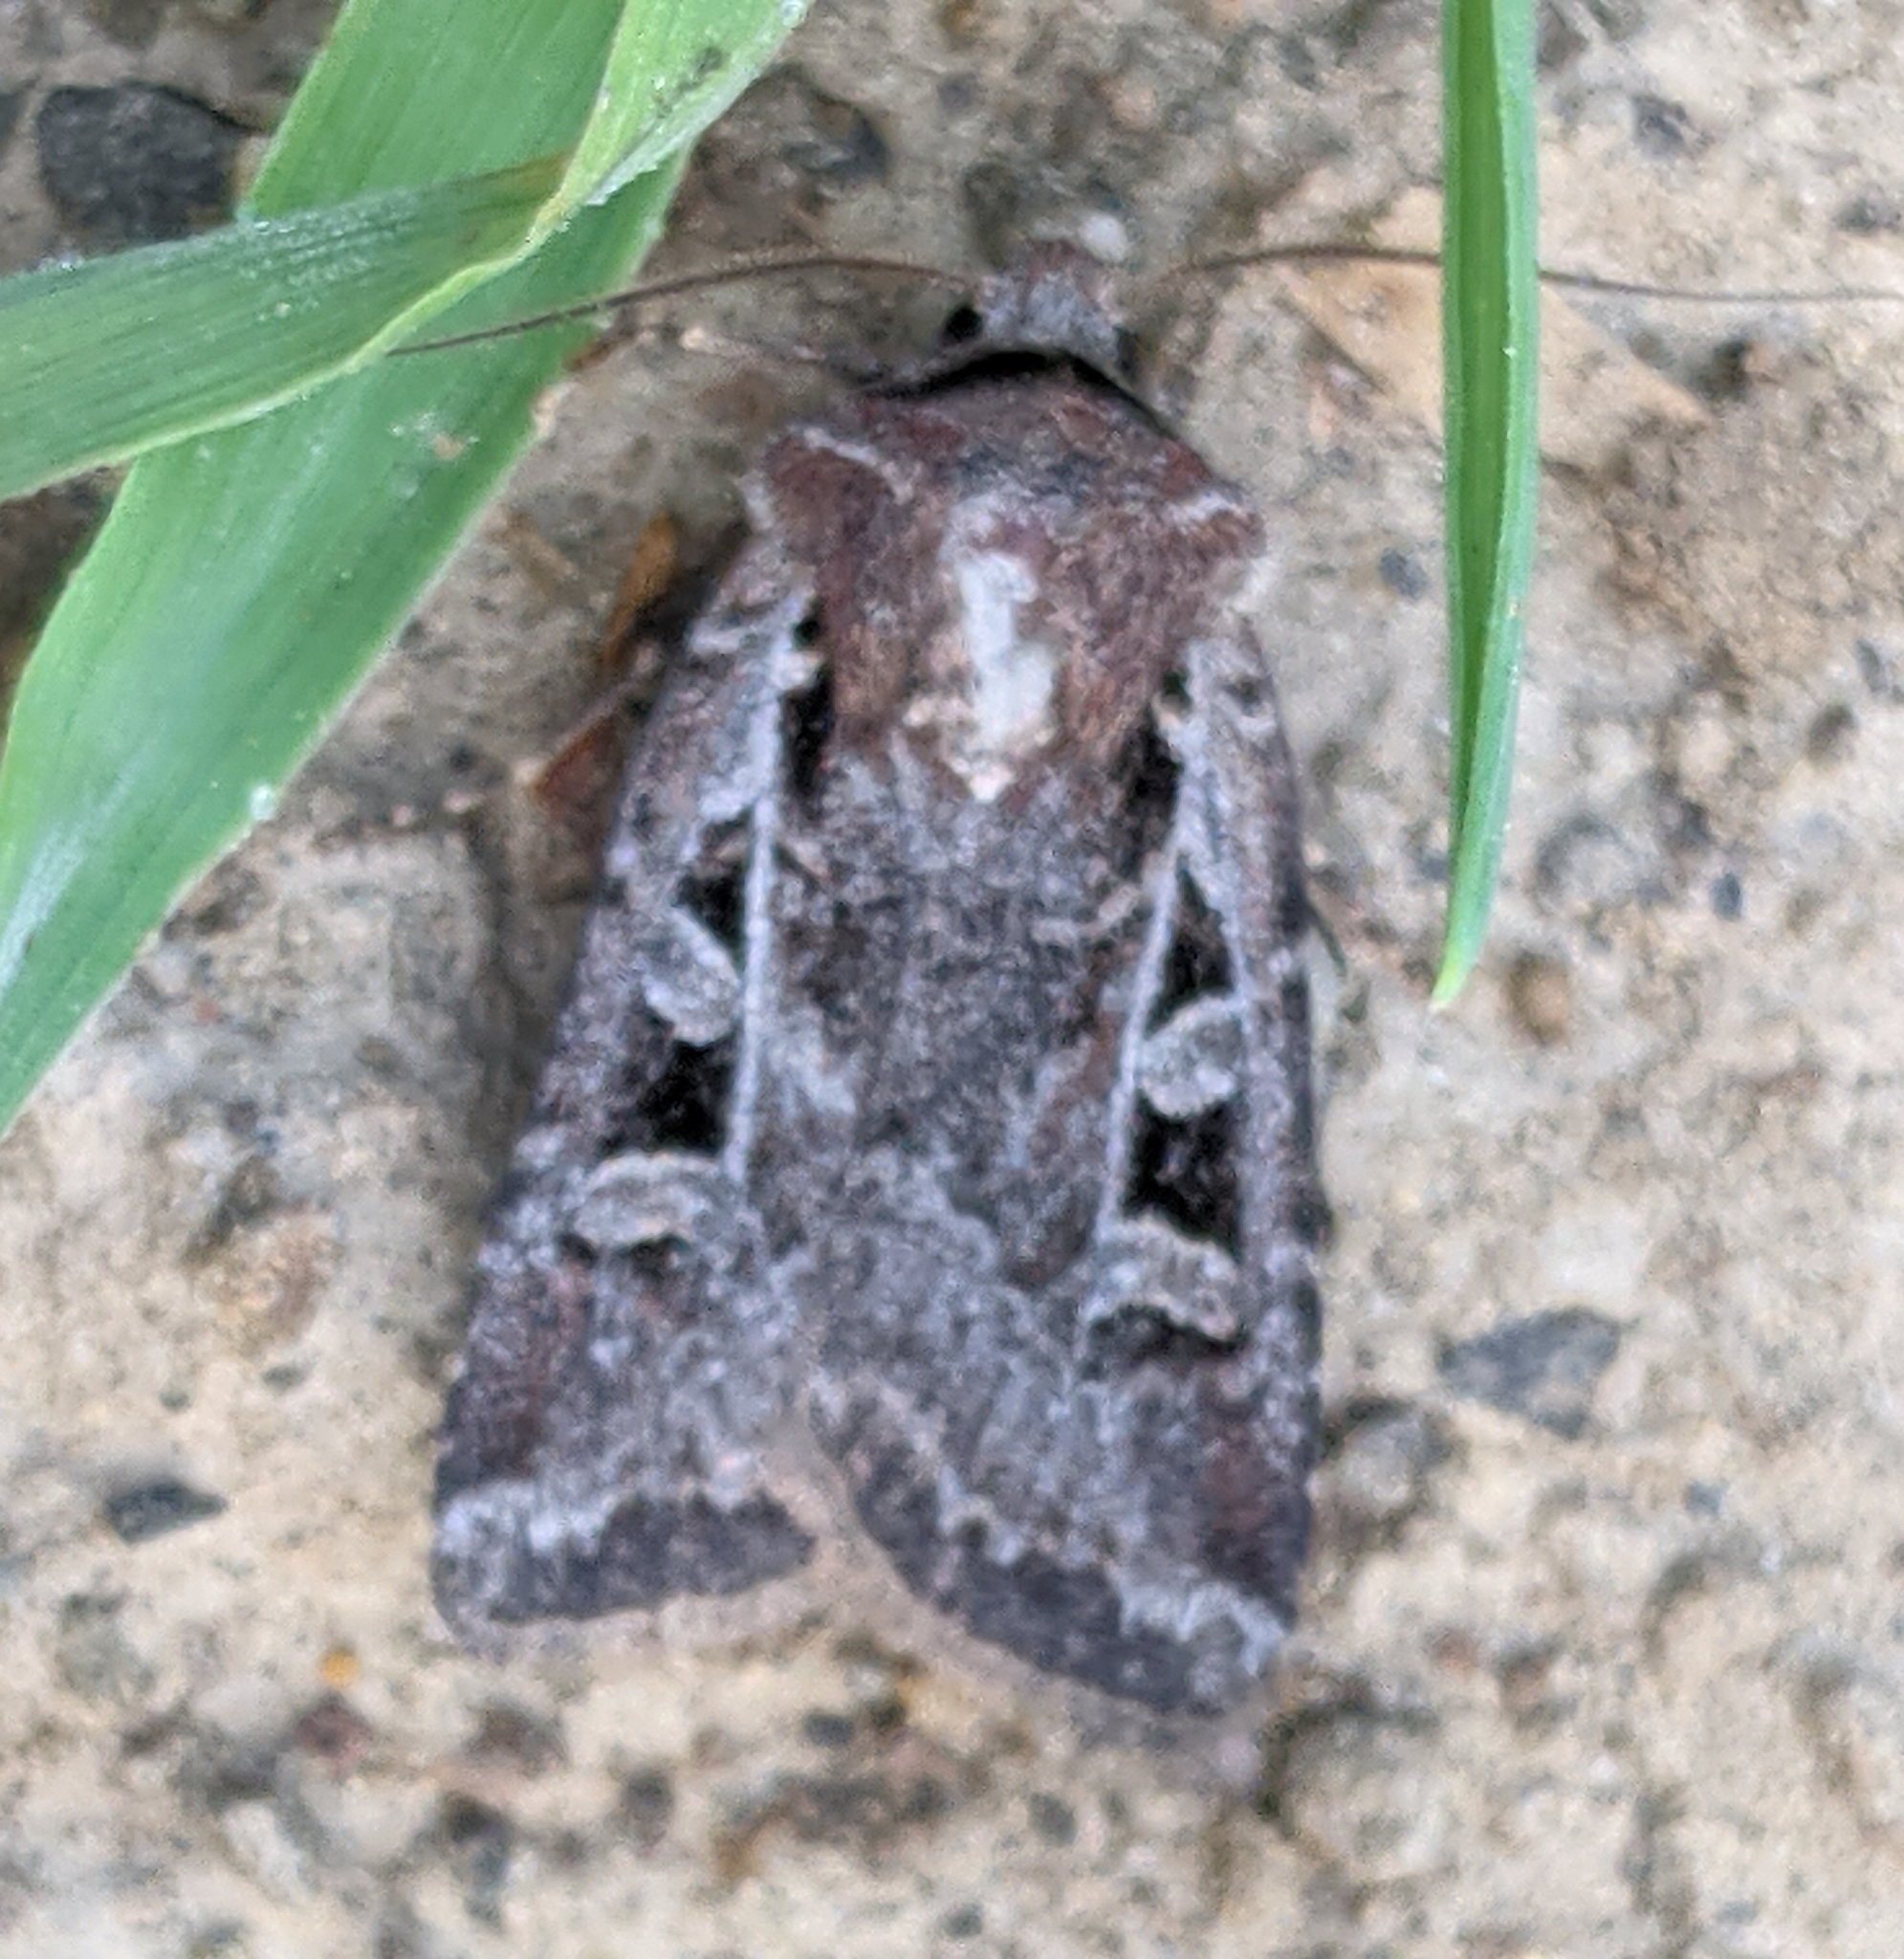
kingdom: Animalia
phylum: Arthropoda
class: Insecta
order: Lepidoptera
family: Noctuidae
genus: Euxoa
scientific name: Euxoa rufula
